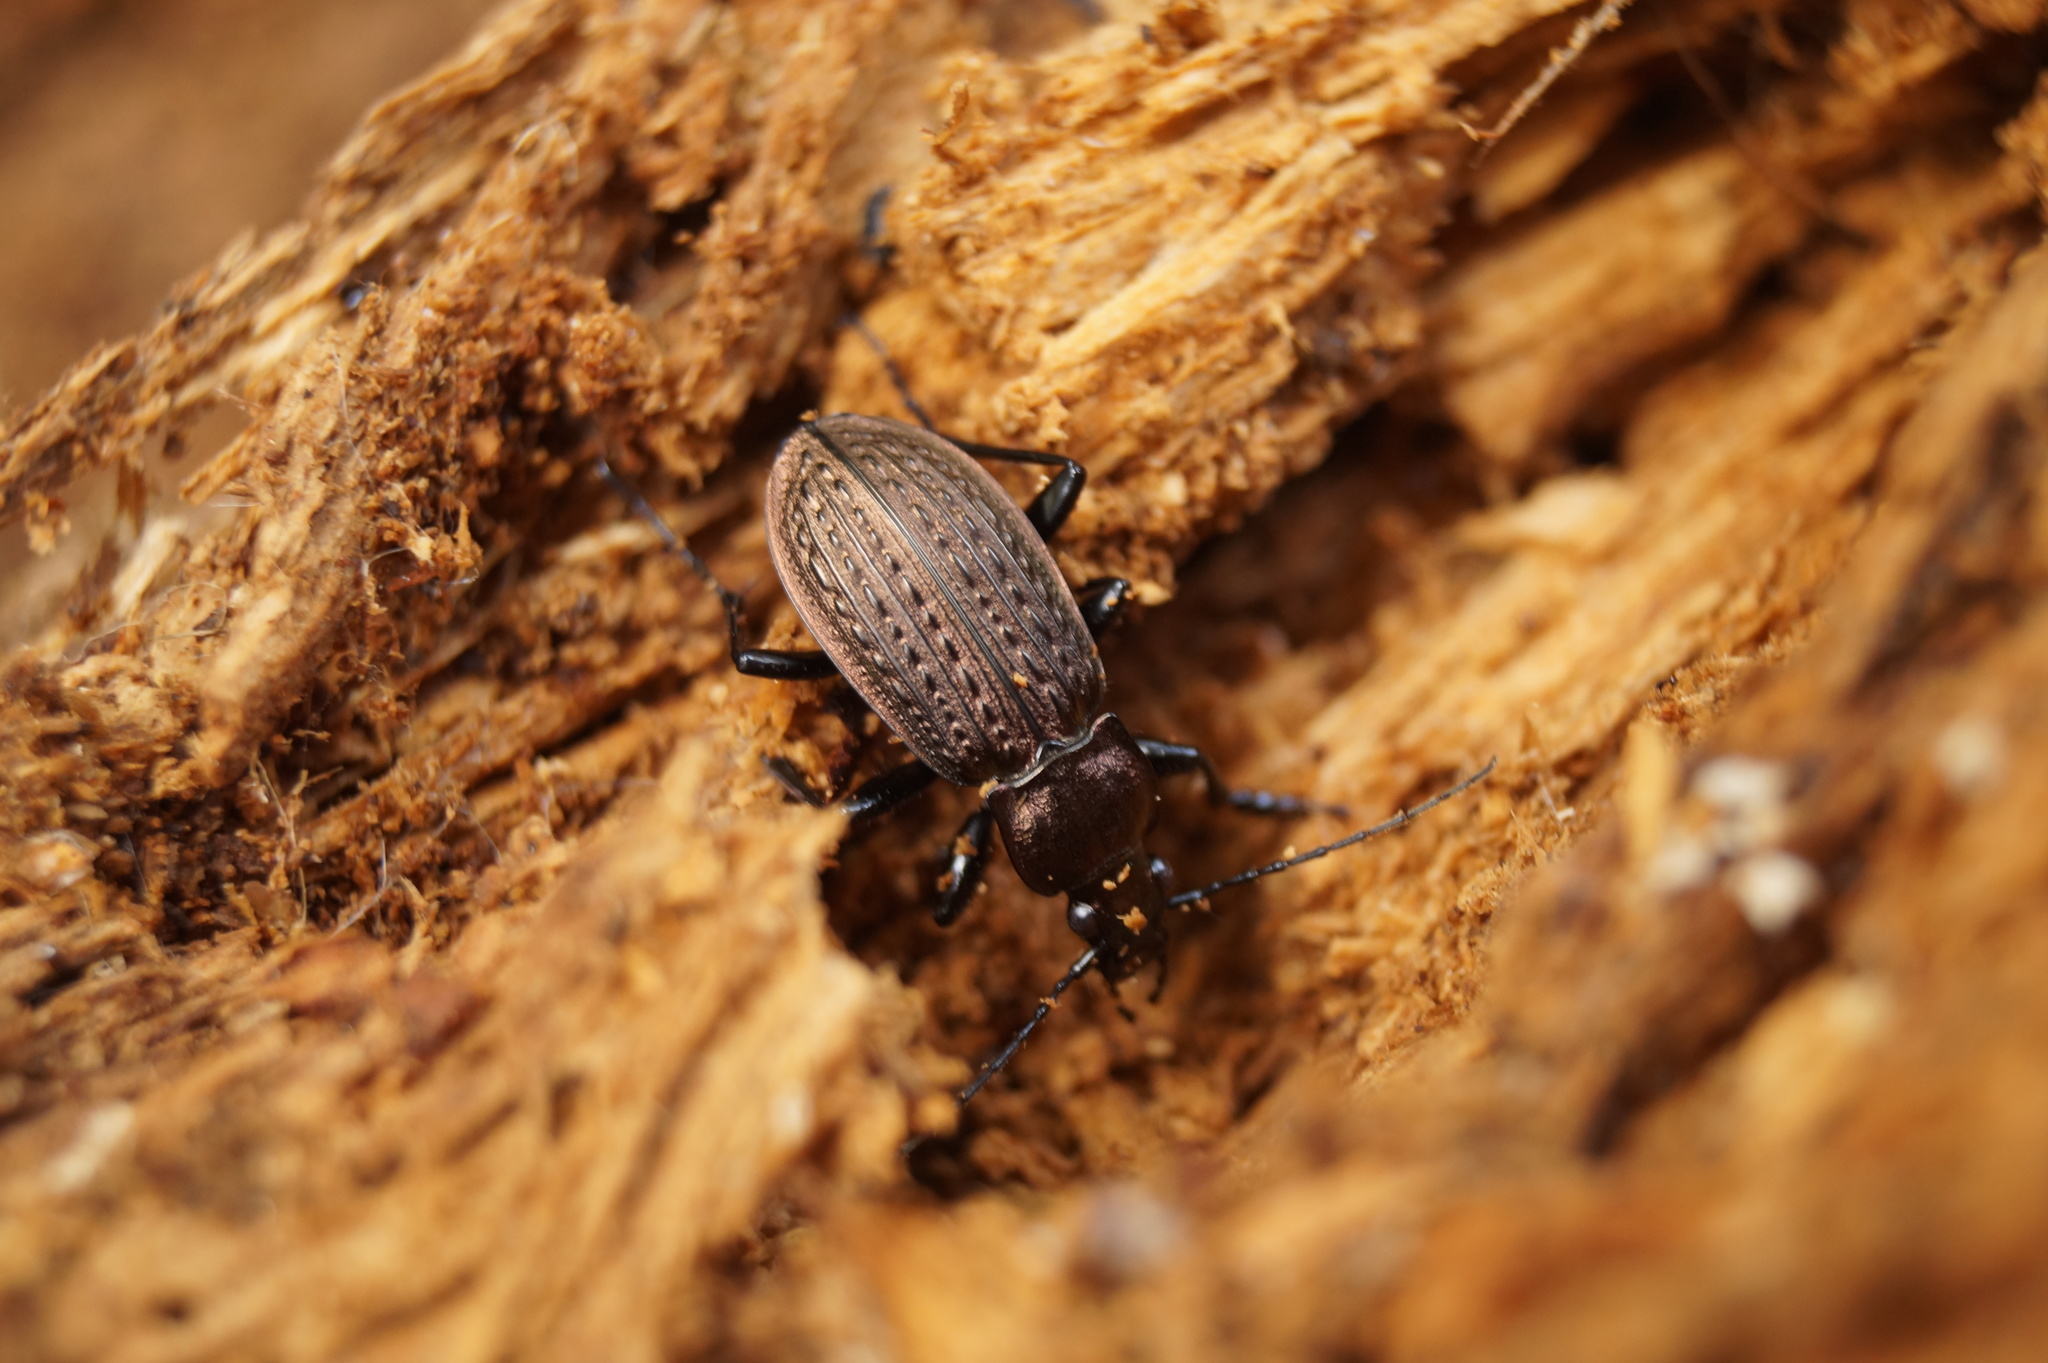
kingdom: Animalia
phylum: Arthropoda
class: Insecta
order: Coleoptera
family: Carabidae
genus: Carabus
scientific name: Carabus granulatus
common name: Granulate ground beetle
